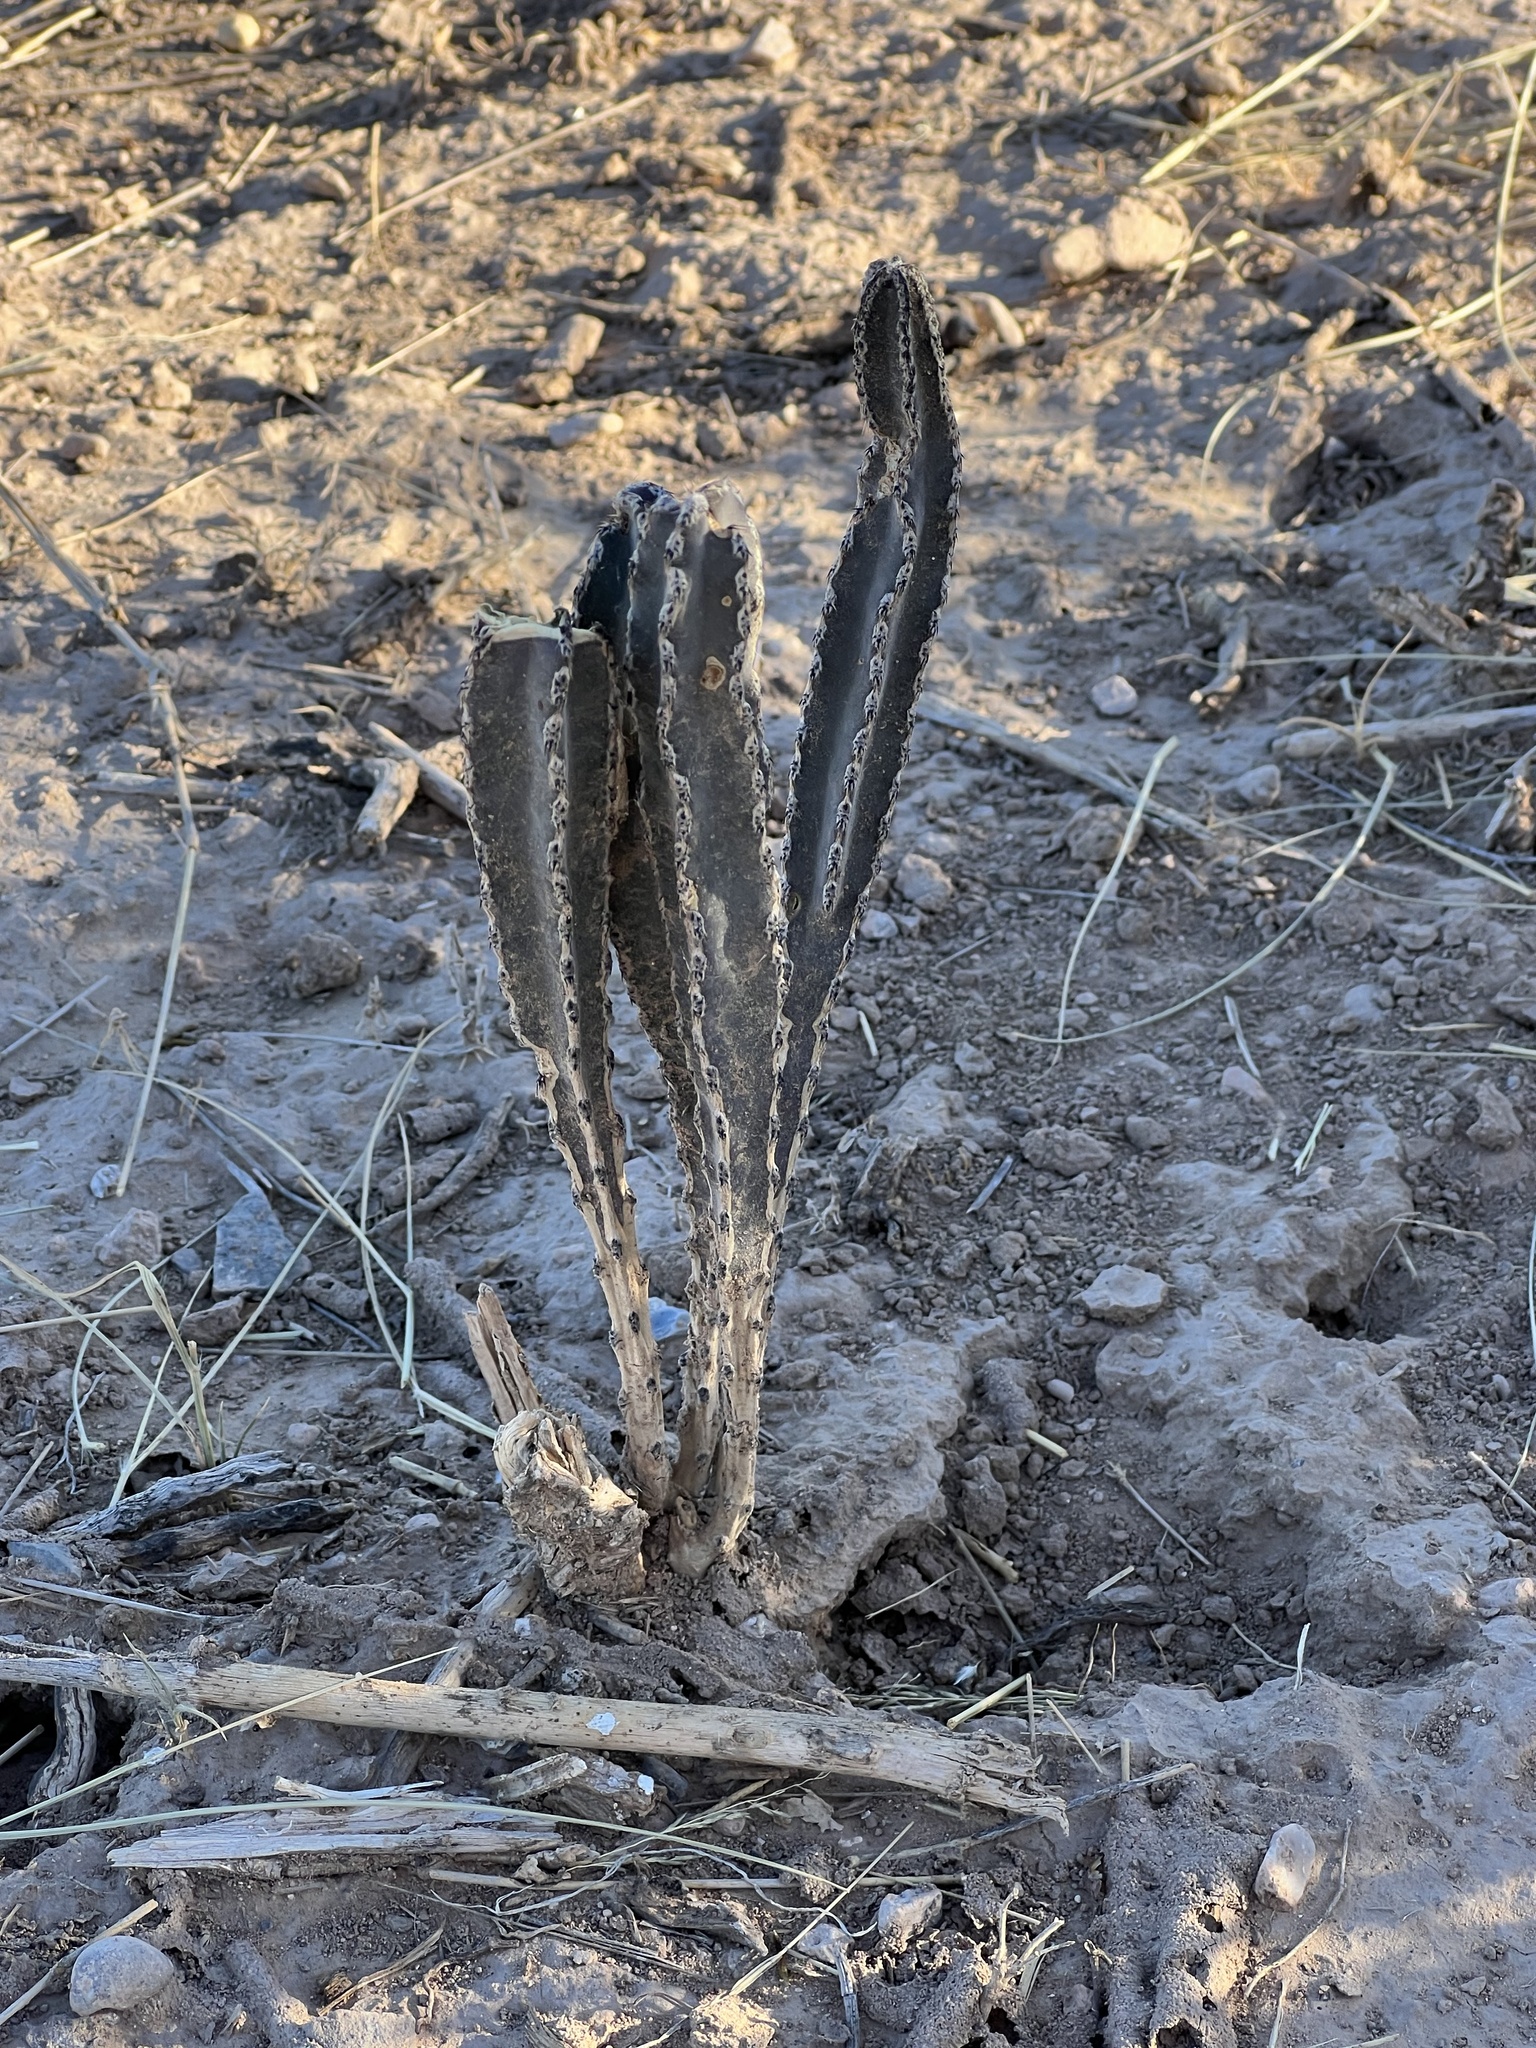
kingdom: Plantae
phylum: Tracheophyta
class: Magnoliopsida
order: Caryophyllales
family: Cactaceae
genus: Peniocereus
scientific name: Peniocereus greggii
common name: Desert night-blooming cereus
